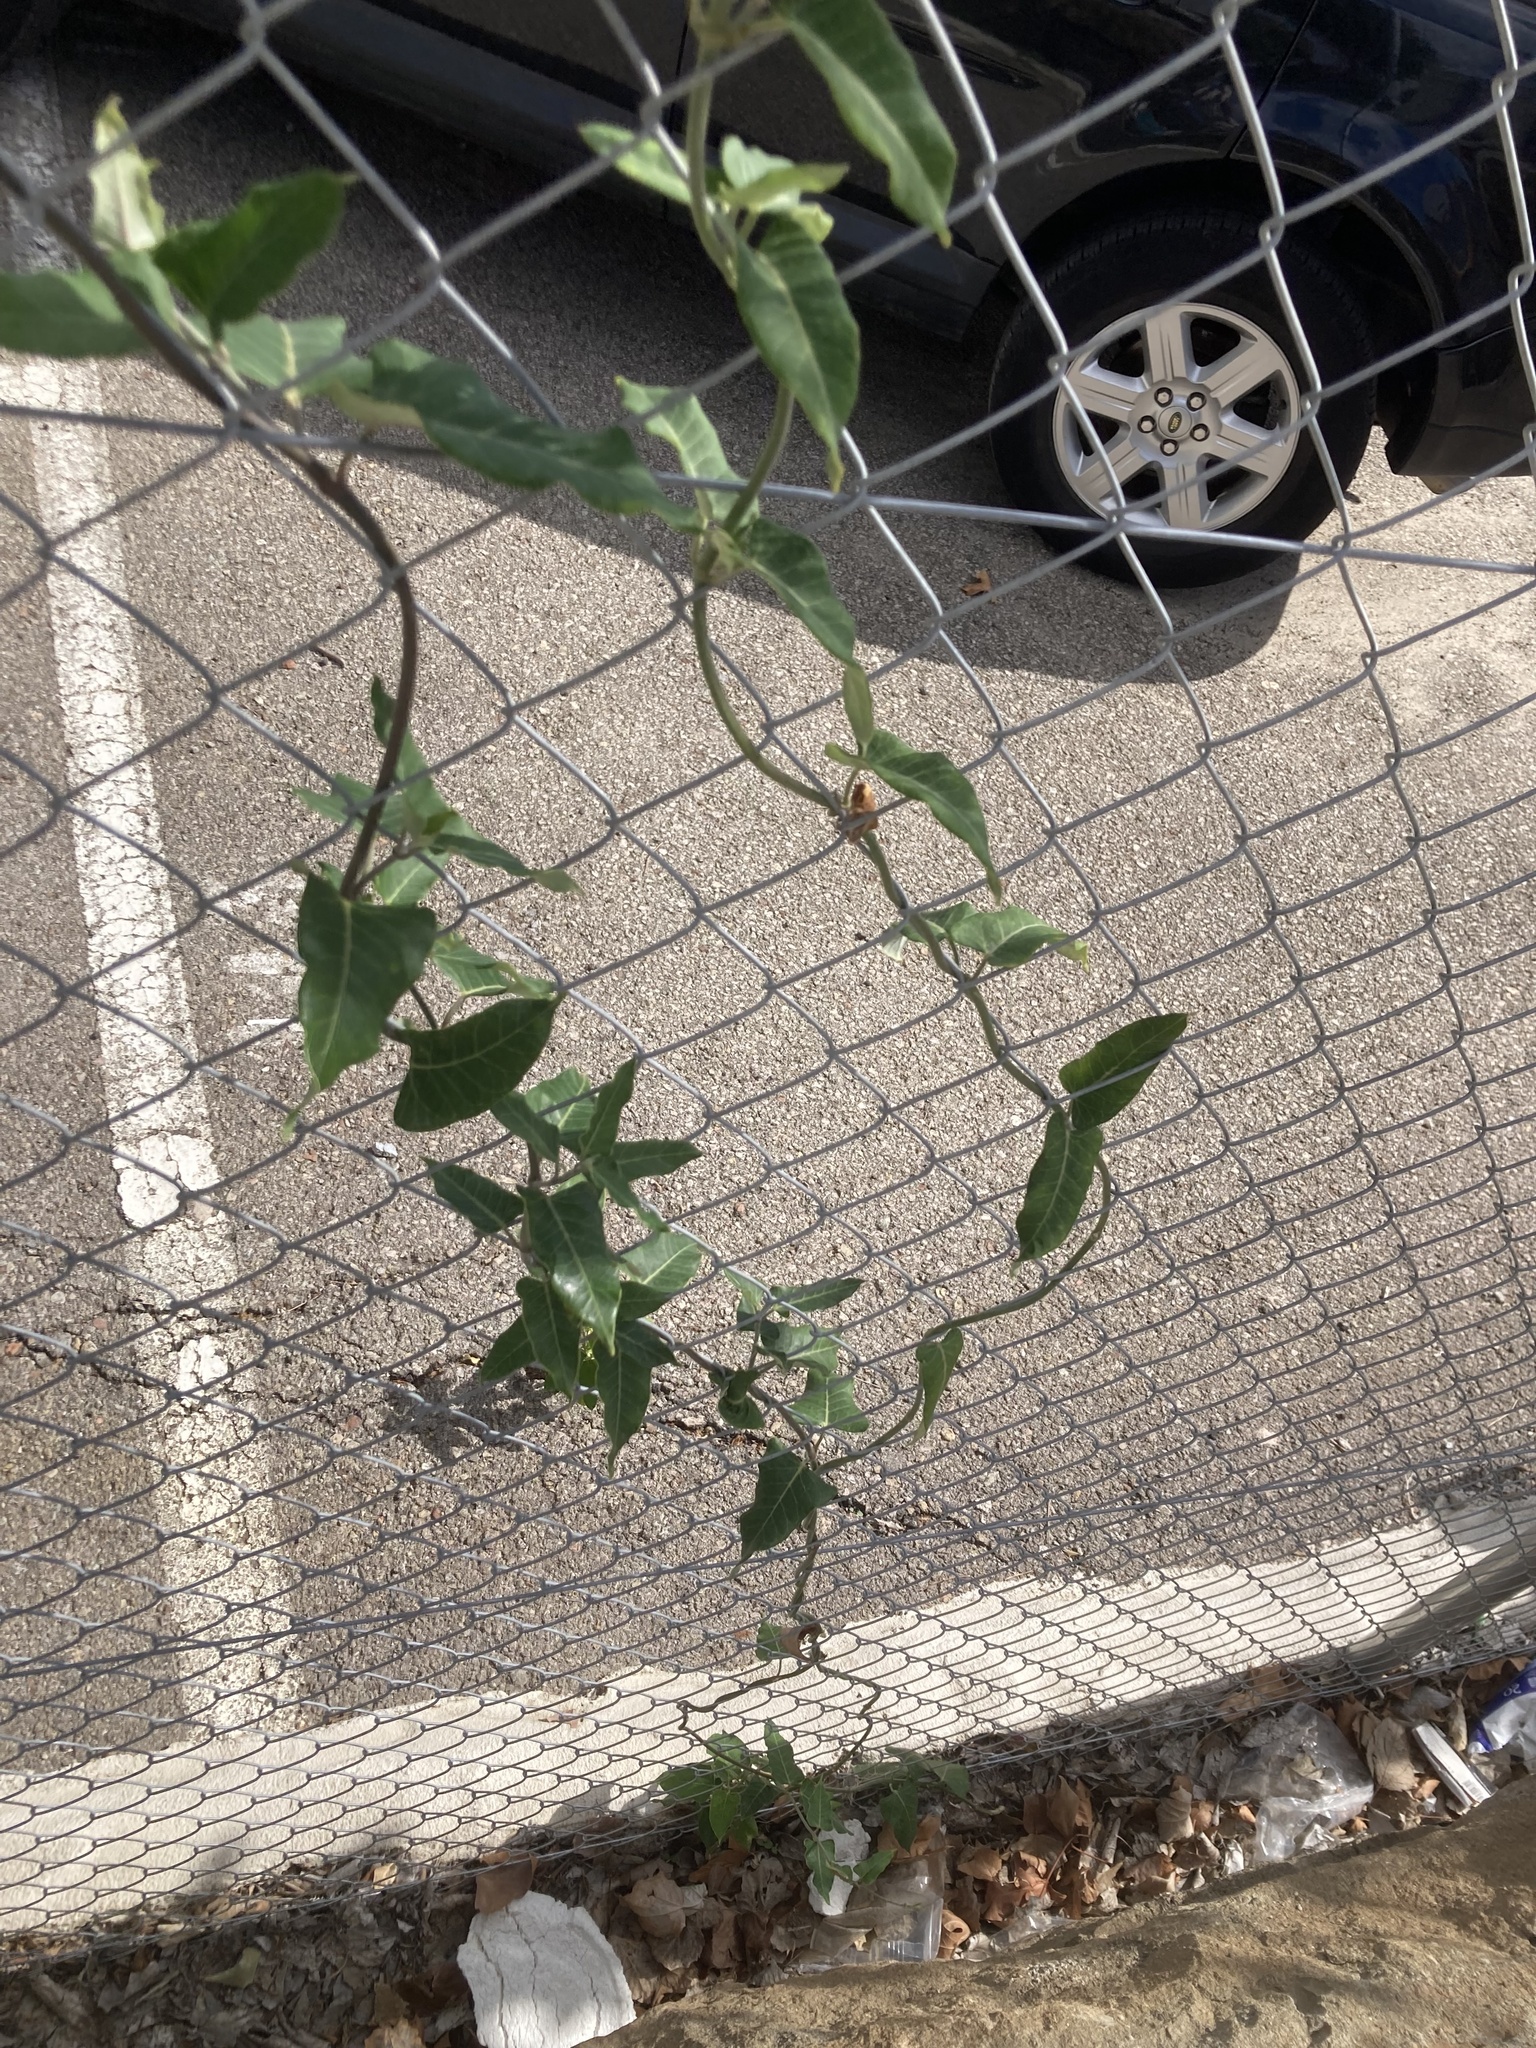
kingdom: Plantae
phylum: Tracheophyta
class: Magnoliopsida
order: Gentianales
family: Apocynaceae
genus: Araujia
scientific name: Araujia sericifera
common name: White bladderflower
